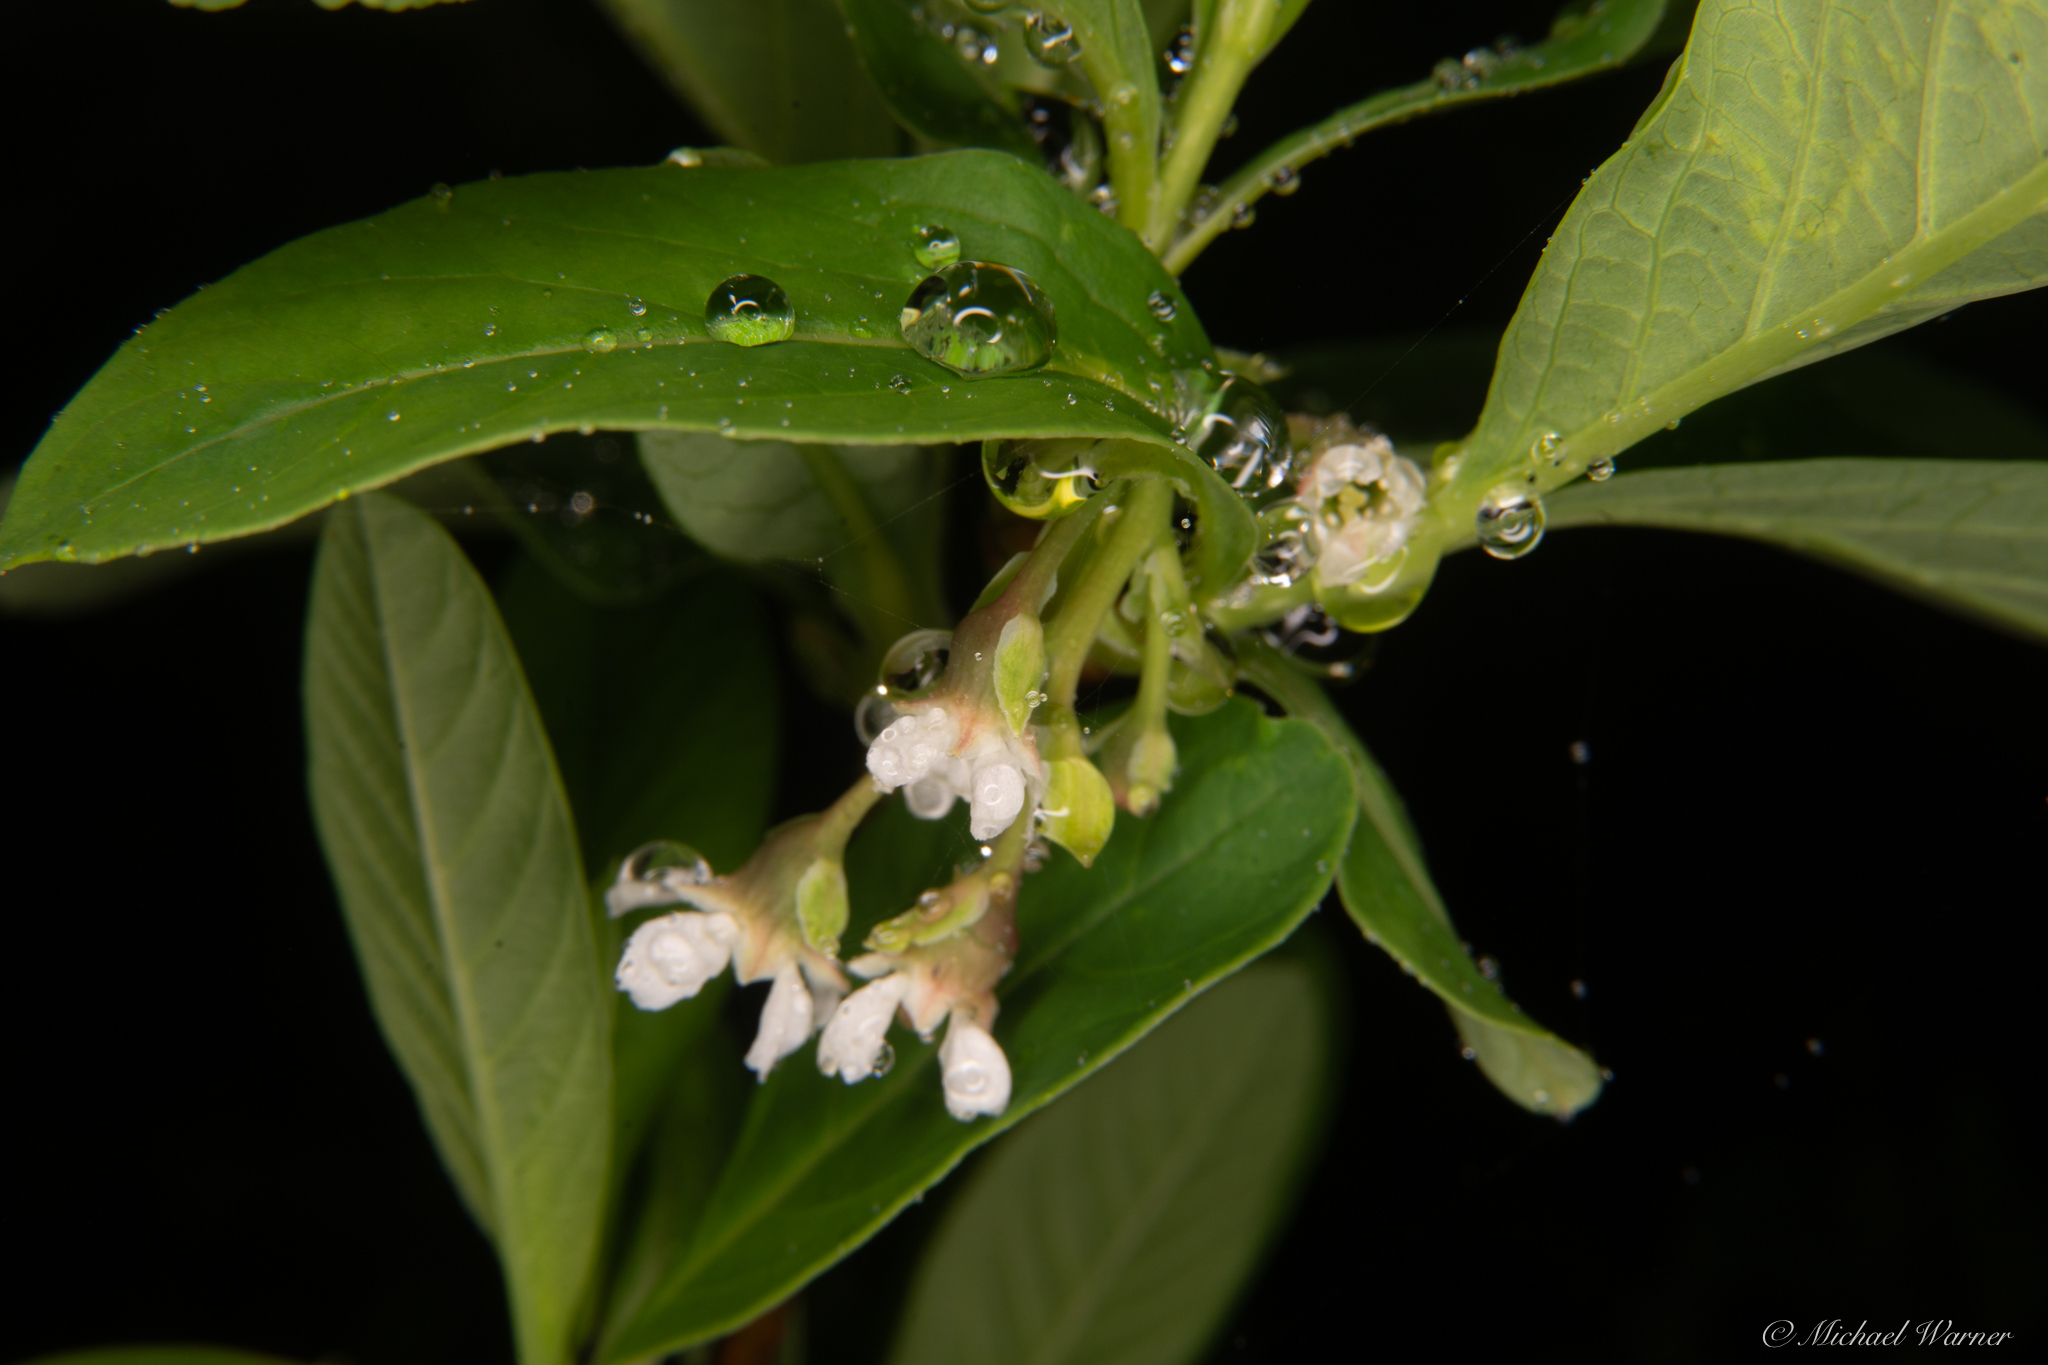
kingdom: Plantae
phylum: Tracheophyta
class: Magnoliopsida
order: Rosales
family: Rosaceae
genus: Oemleria
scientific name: Oemleria cerasiformis
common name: Osoberry
